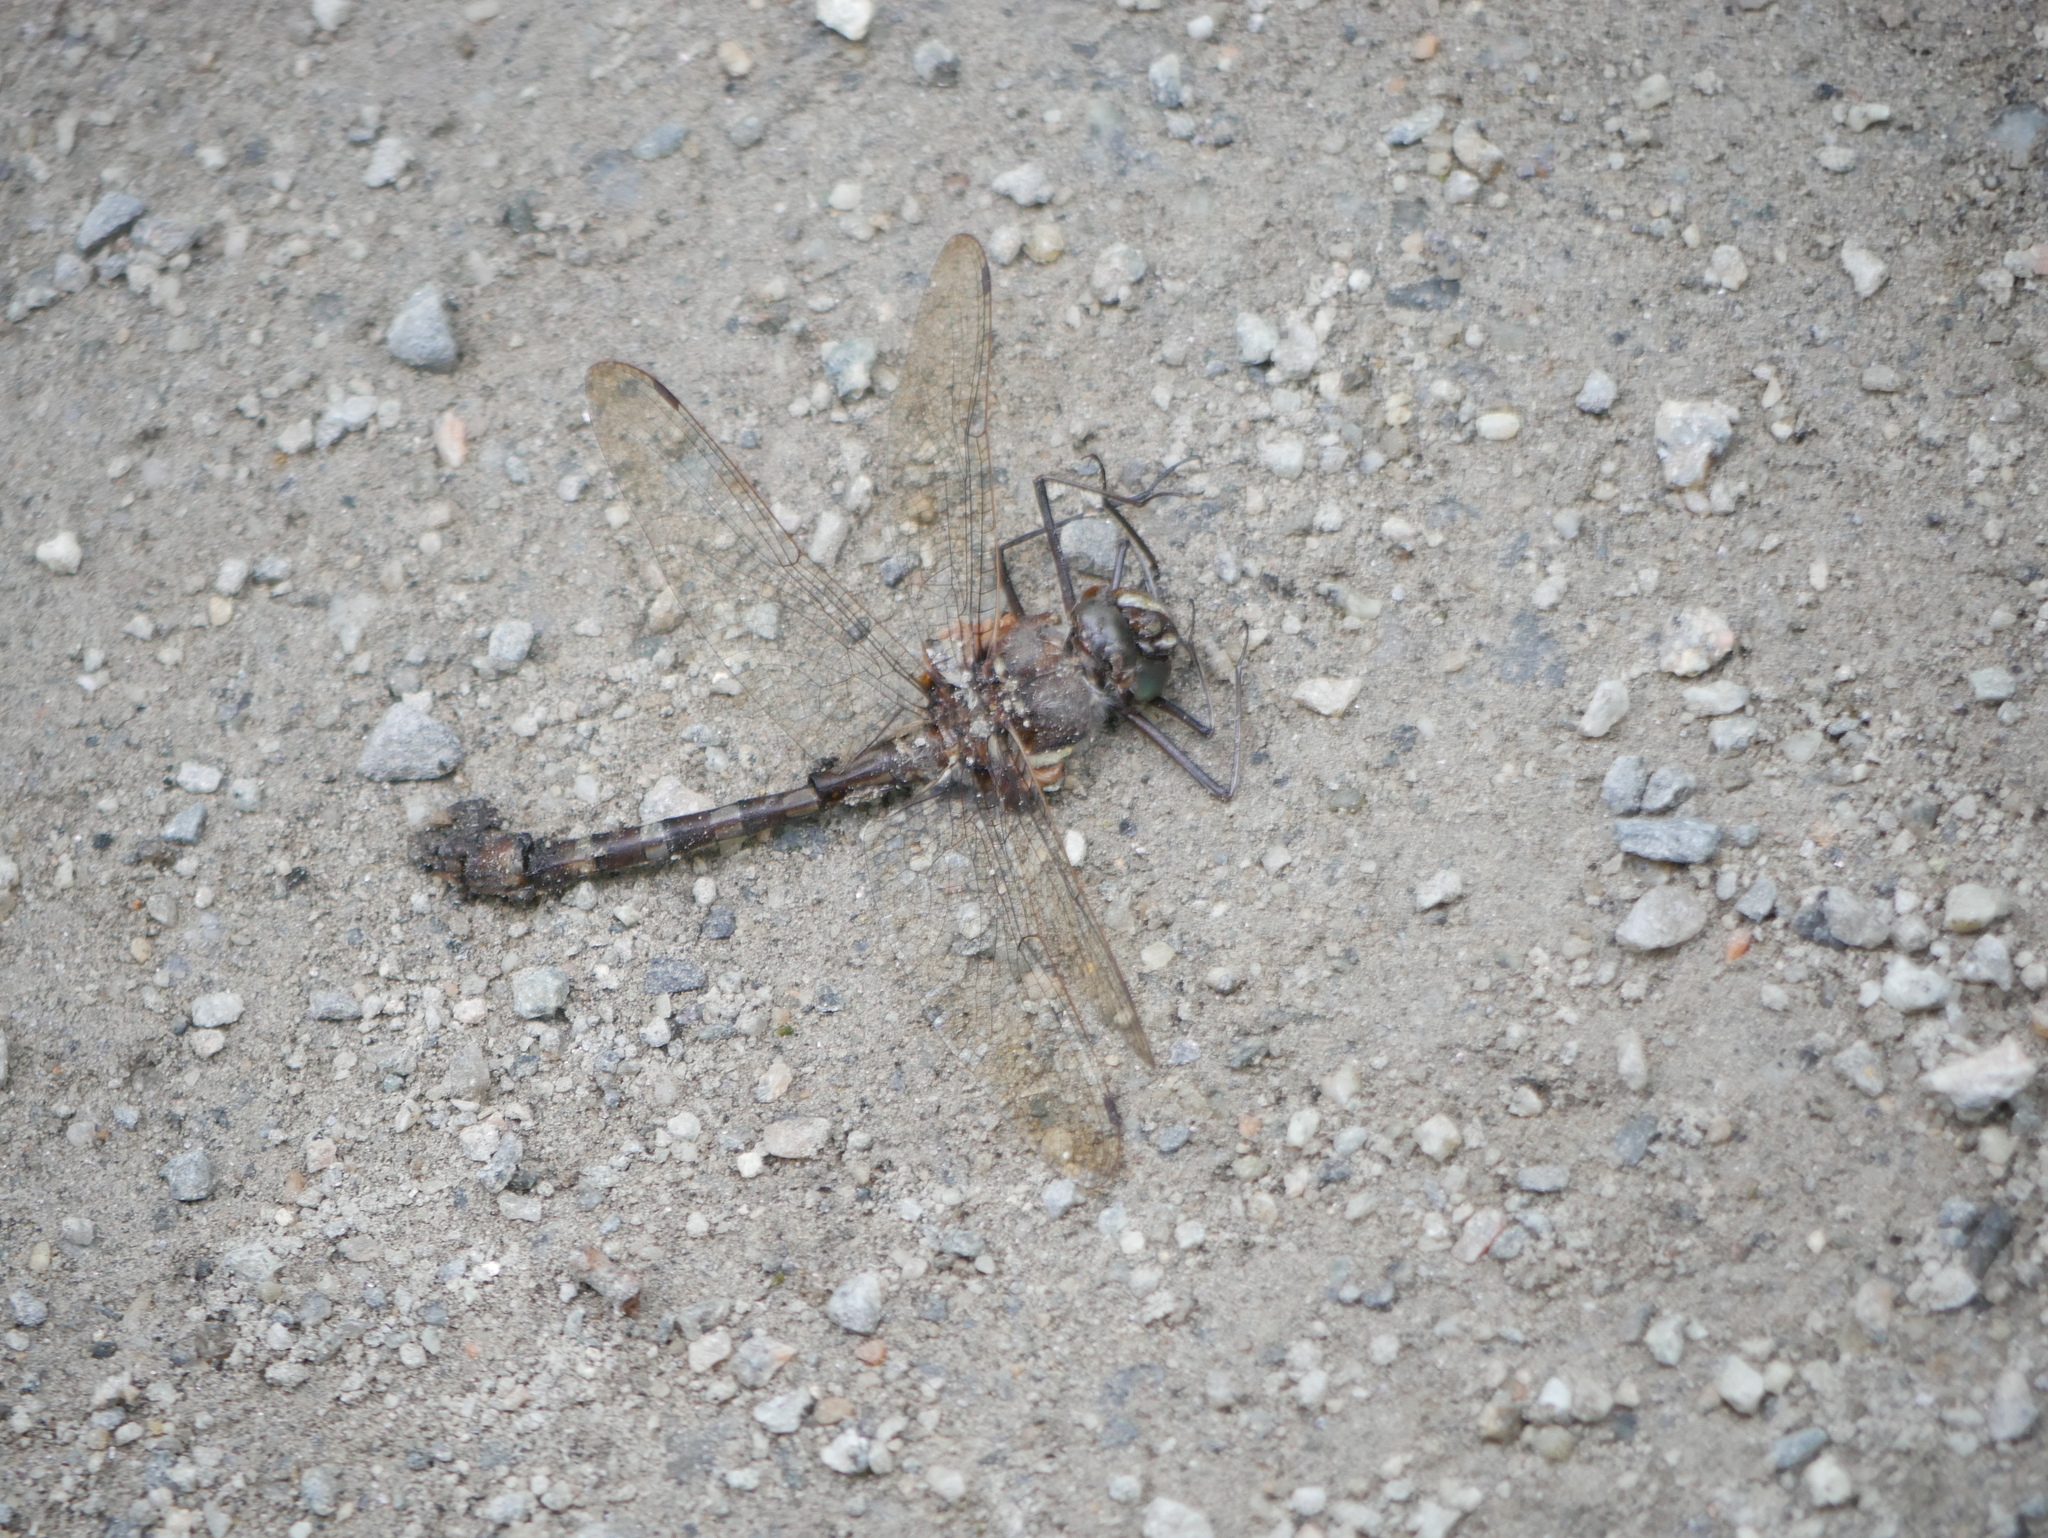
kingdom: Animalia
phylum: Arthropoda
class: Insecta
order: Odonata
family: Macromiidae
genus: Didymops
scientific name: Didymops transversa
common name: Stream cruiser
